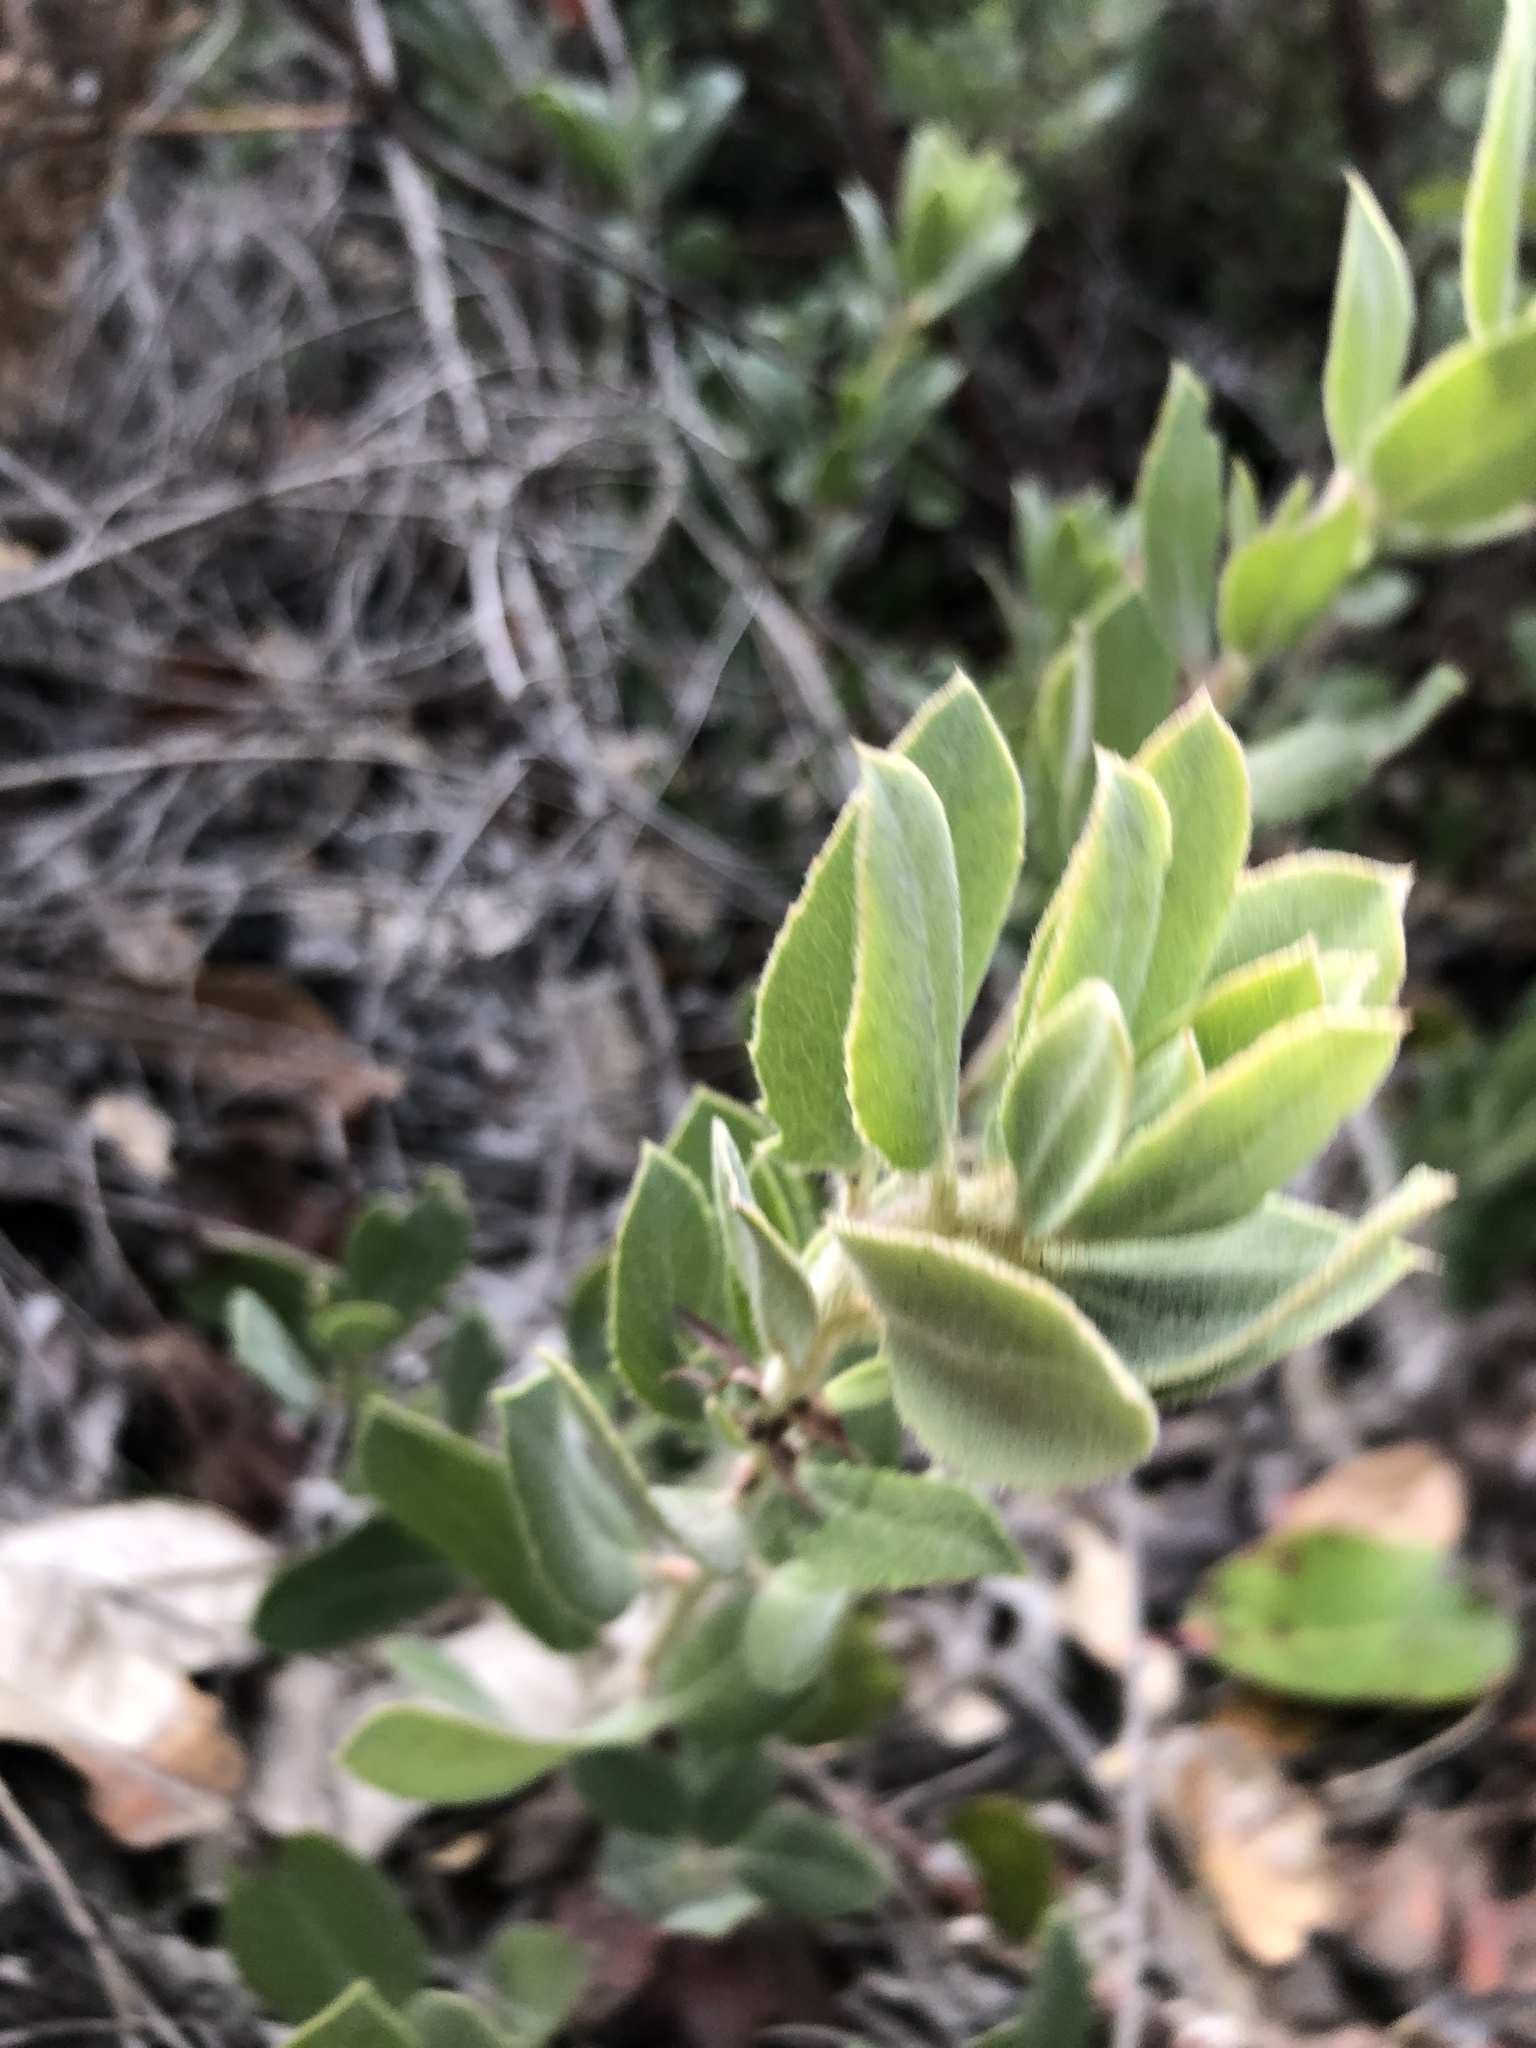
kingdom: Plantae
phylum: Tracheophyta
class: Magnoliopsida
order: Ericales
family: Ericaceae
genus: Arctostaphylos
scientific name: Arctostaphylos crustacea
